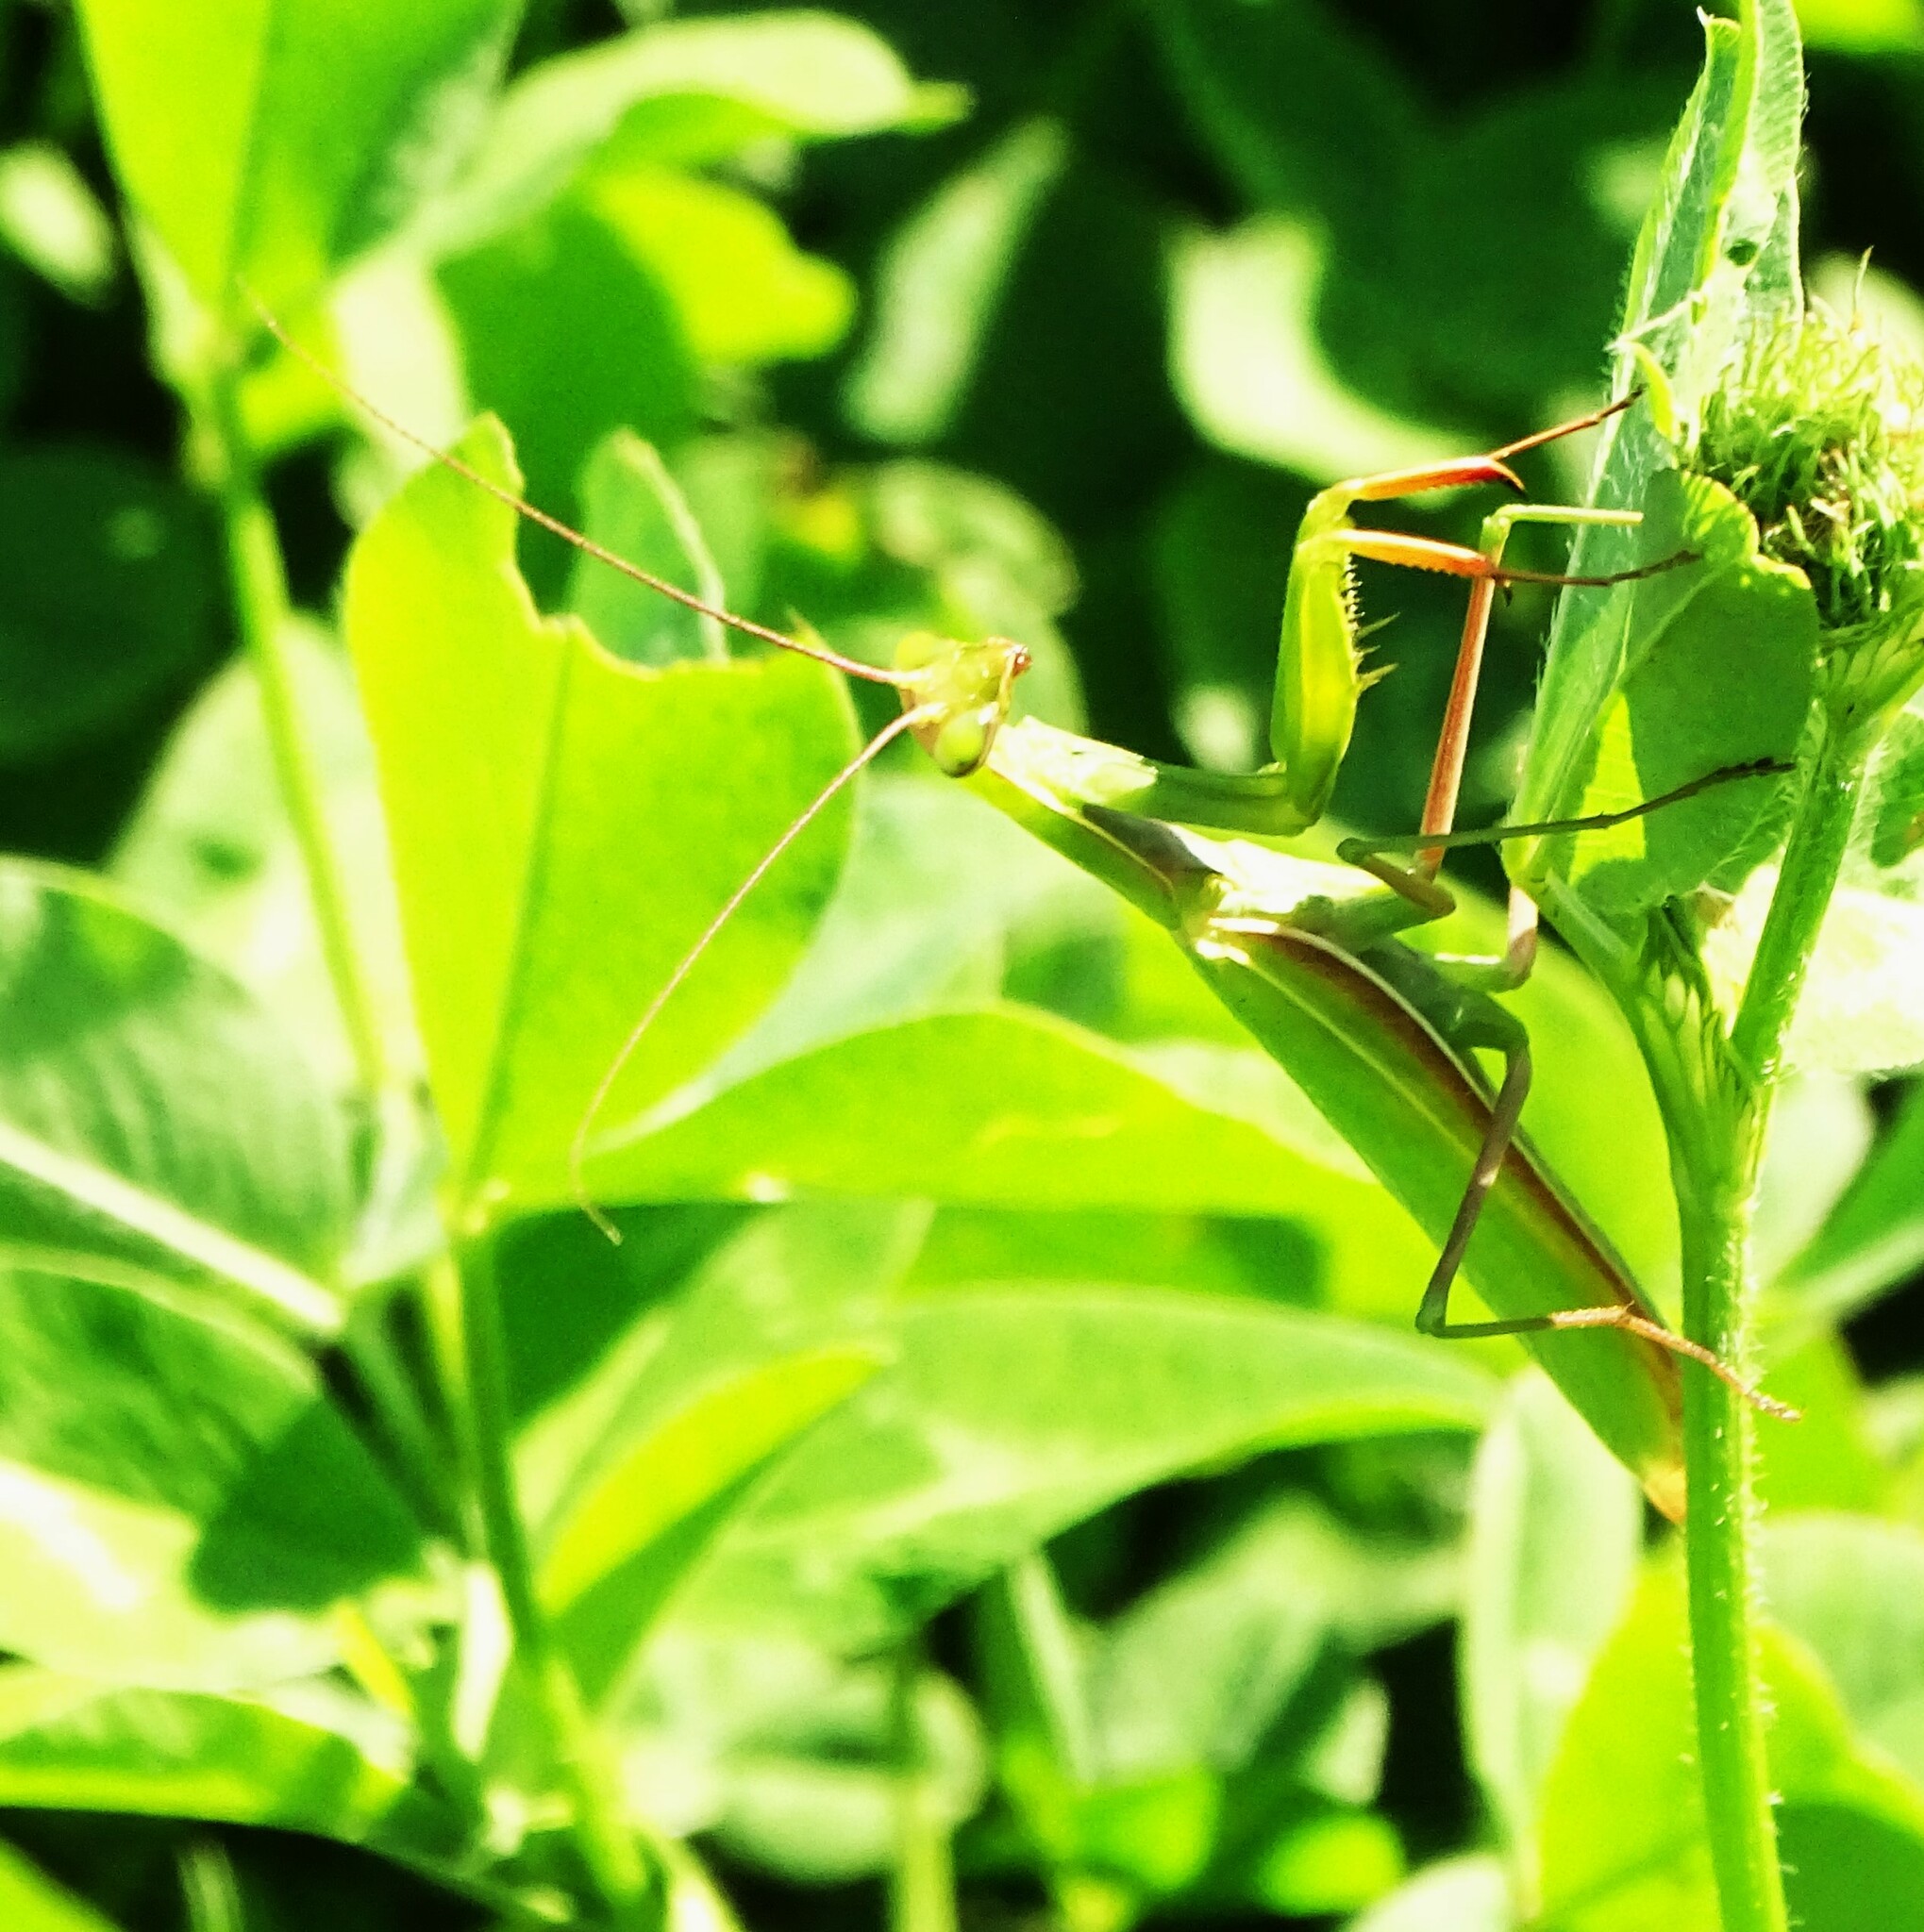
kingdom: Animalia
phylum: Arthropoda
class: Insecta
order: Mantodea
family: Mantidae
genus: Mantis
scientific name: Mantis religiosa
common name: Praying mantis
